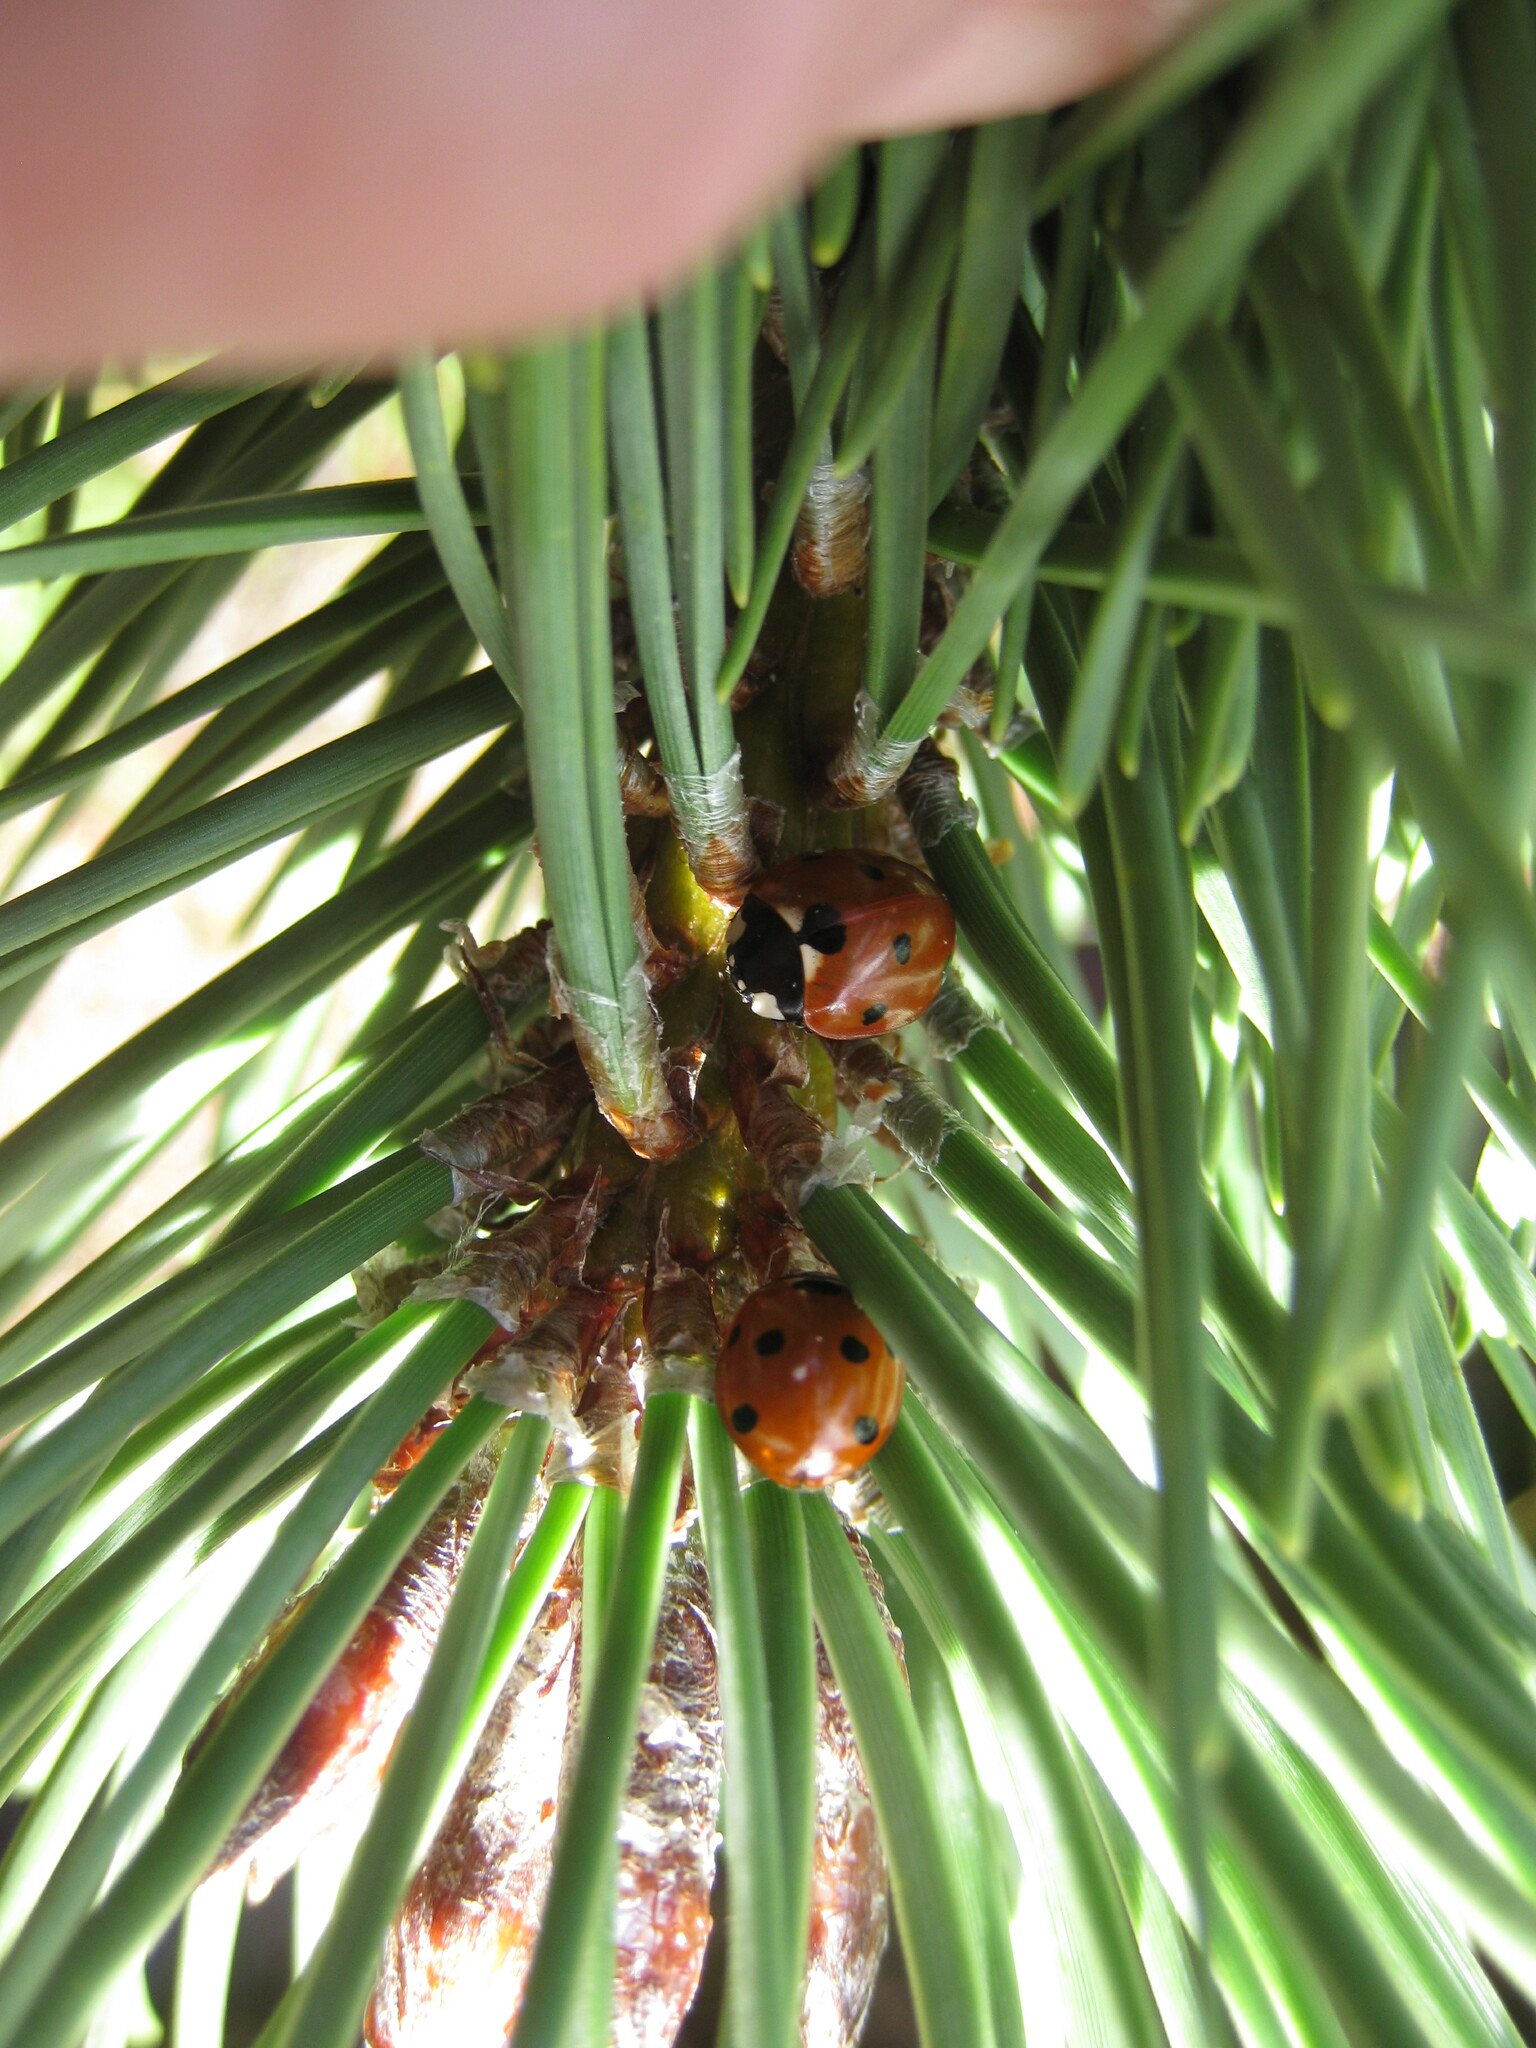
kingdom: Animalia
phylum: Arthropoda
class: Insecta
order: Coleoptera
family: Coccinellidae
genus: Coccinella
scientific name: Coccinella septempunctata
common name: Sevenspotted lady beetle
